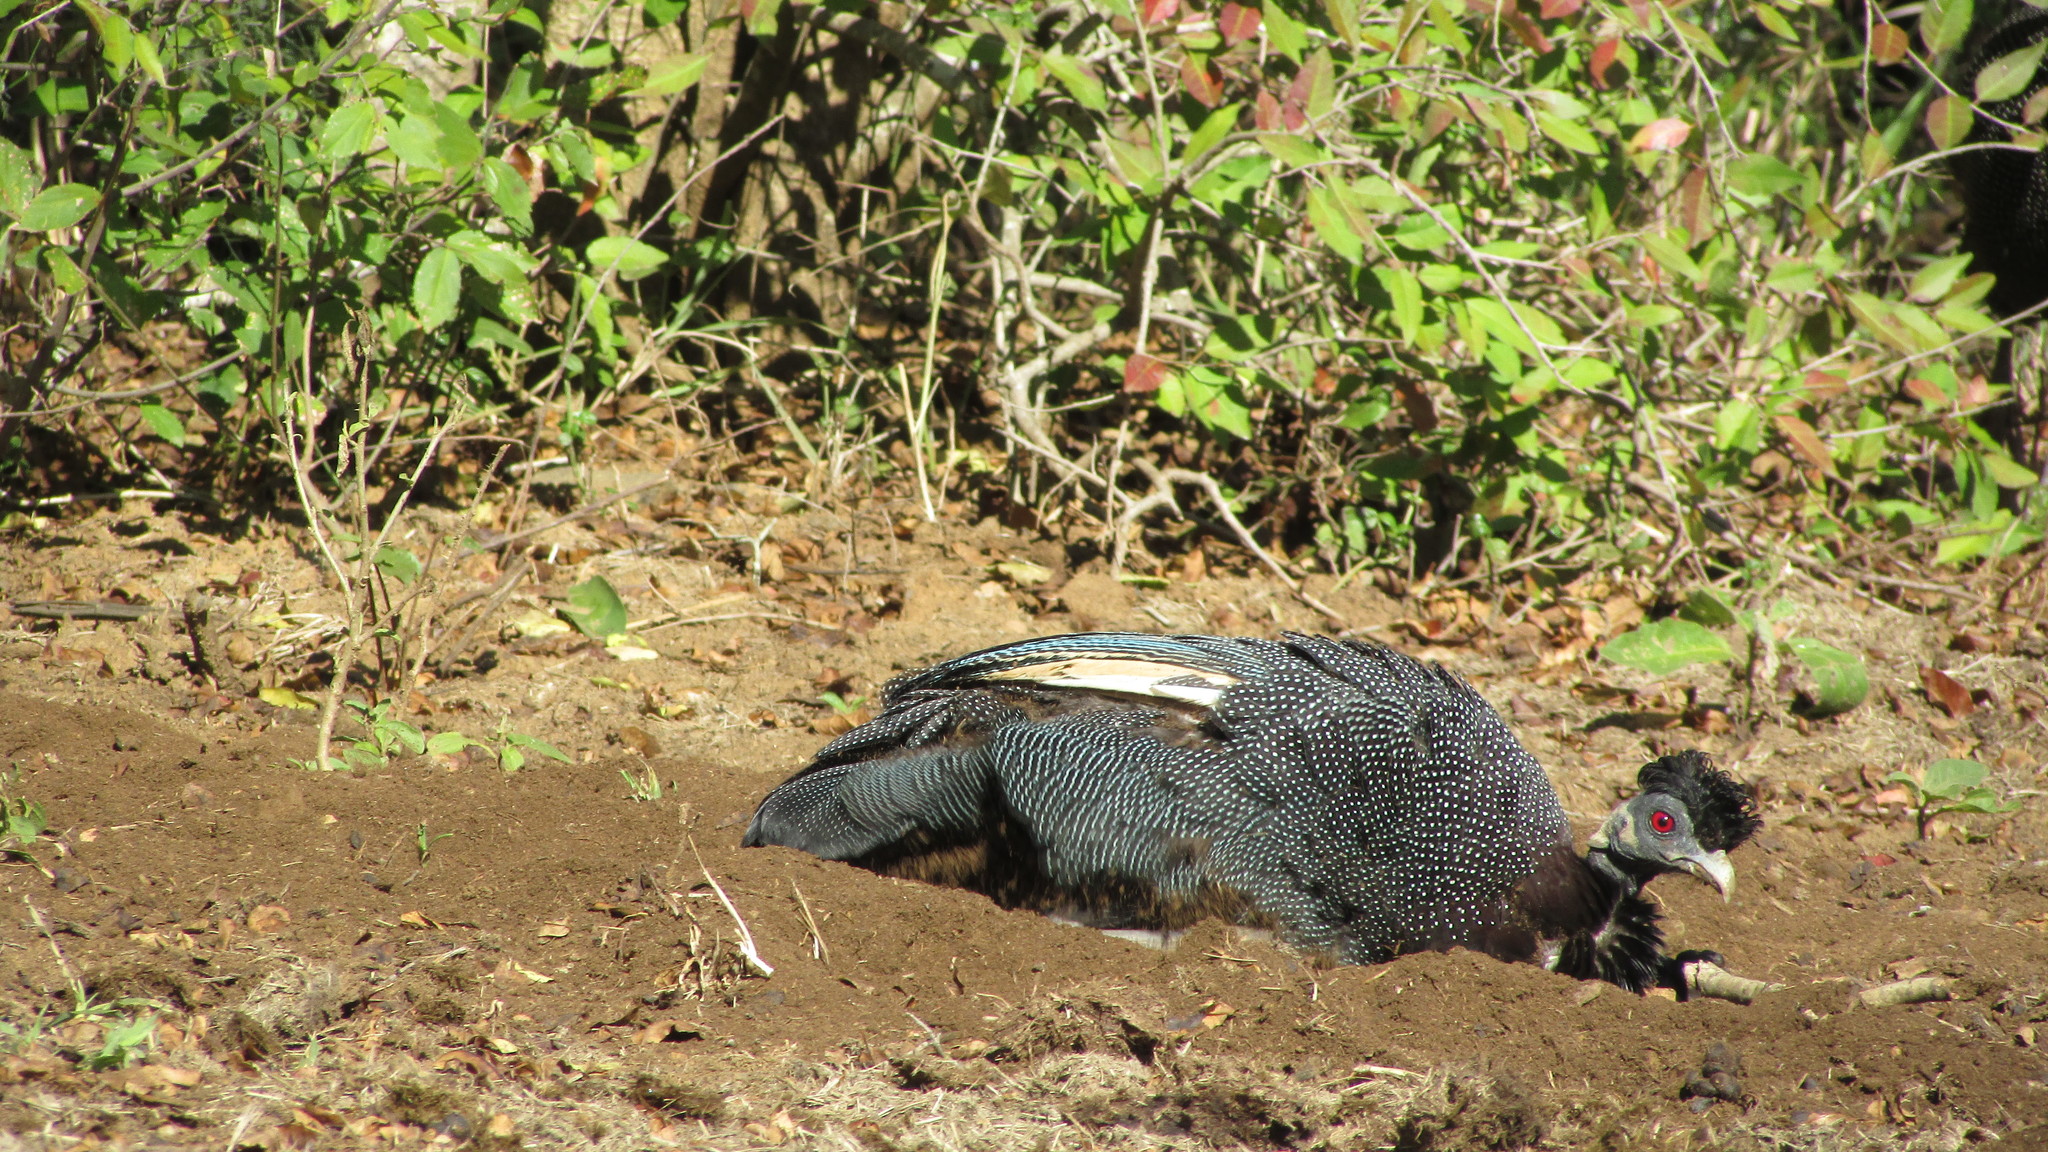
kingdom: Animalia
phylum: Chordata
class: Aves
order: Galliformes
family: Numididae
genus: Guttera
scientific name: Guttera pucherani
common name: Crested guineafowl
